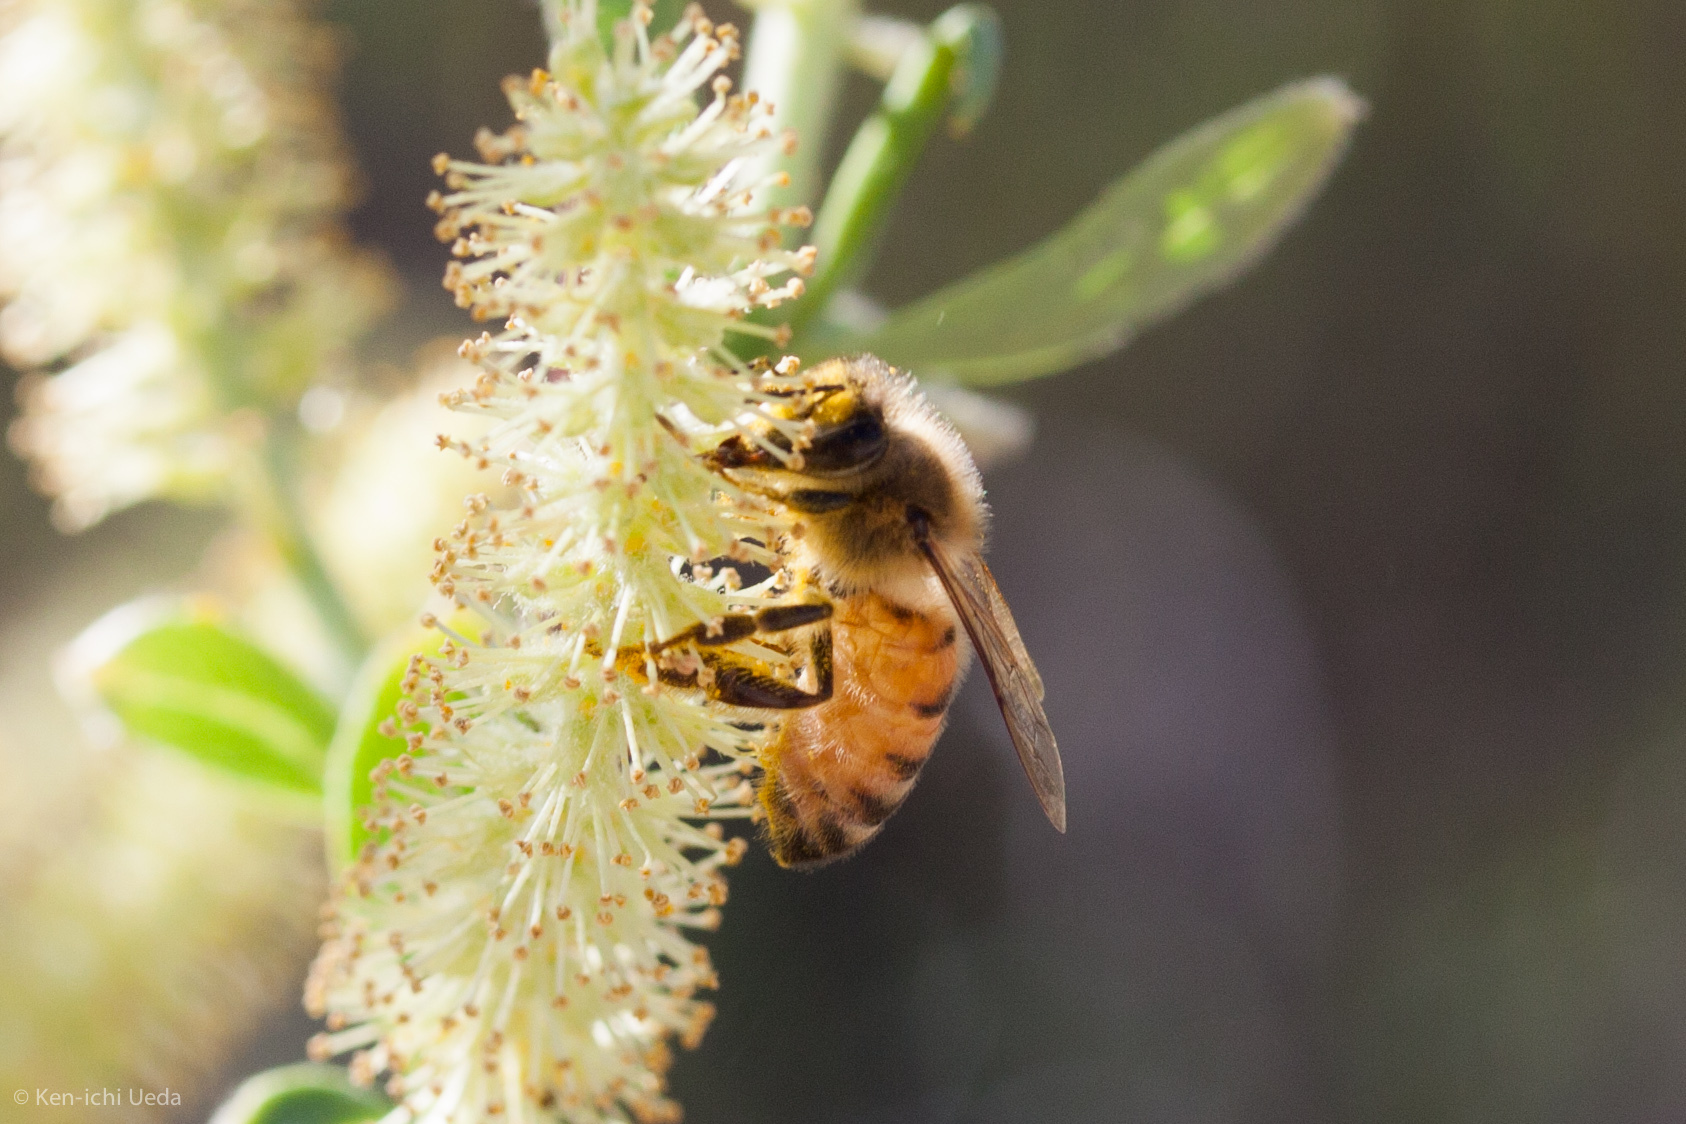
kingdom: Animalia
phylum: Arthropoda
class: Insecta
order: Hymenoptera
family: Apidae
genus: Apis
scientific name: Apis mellifera
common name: Honey bee
